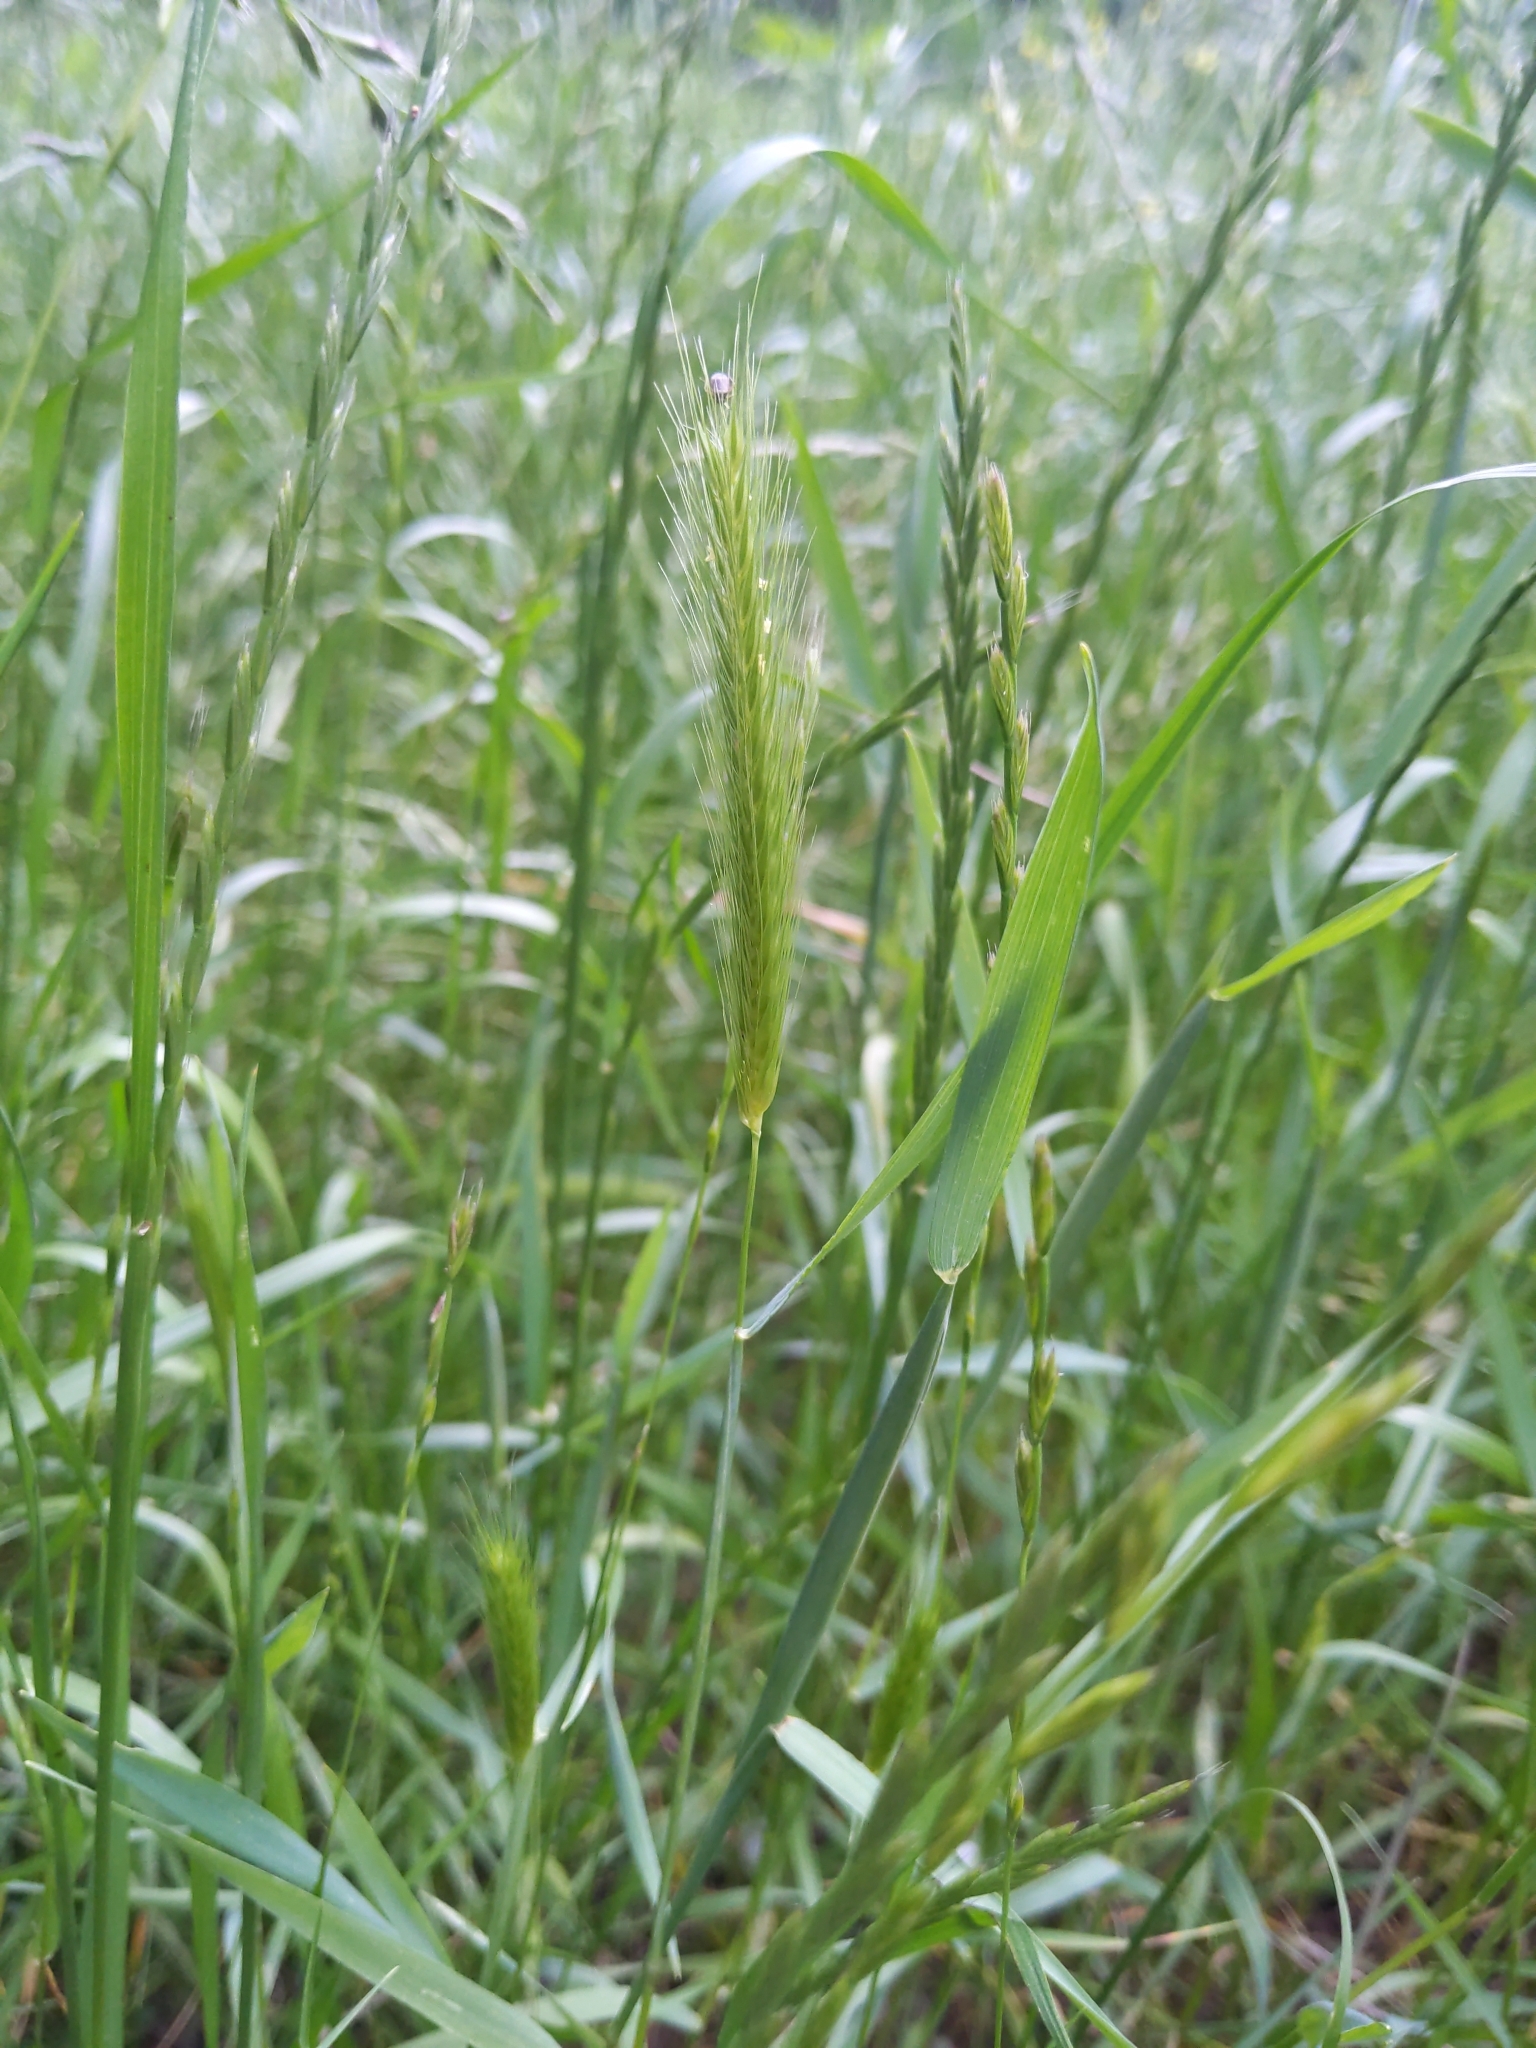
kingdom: Plantae
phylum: Tracheophyta
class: Liliopsida
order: Poales
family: Poaceae
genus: Hordeum
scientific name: Hordeum pusillum
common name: Little barley
